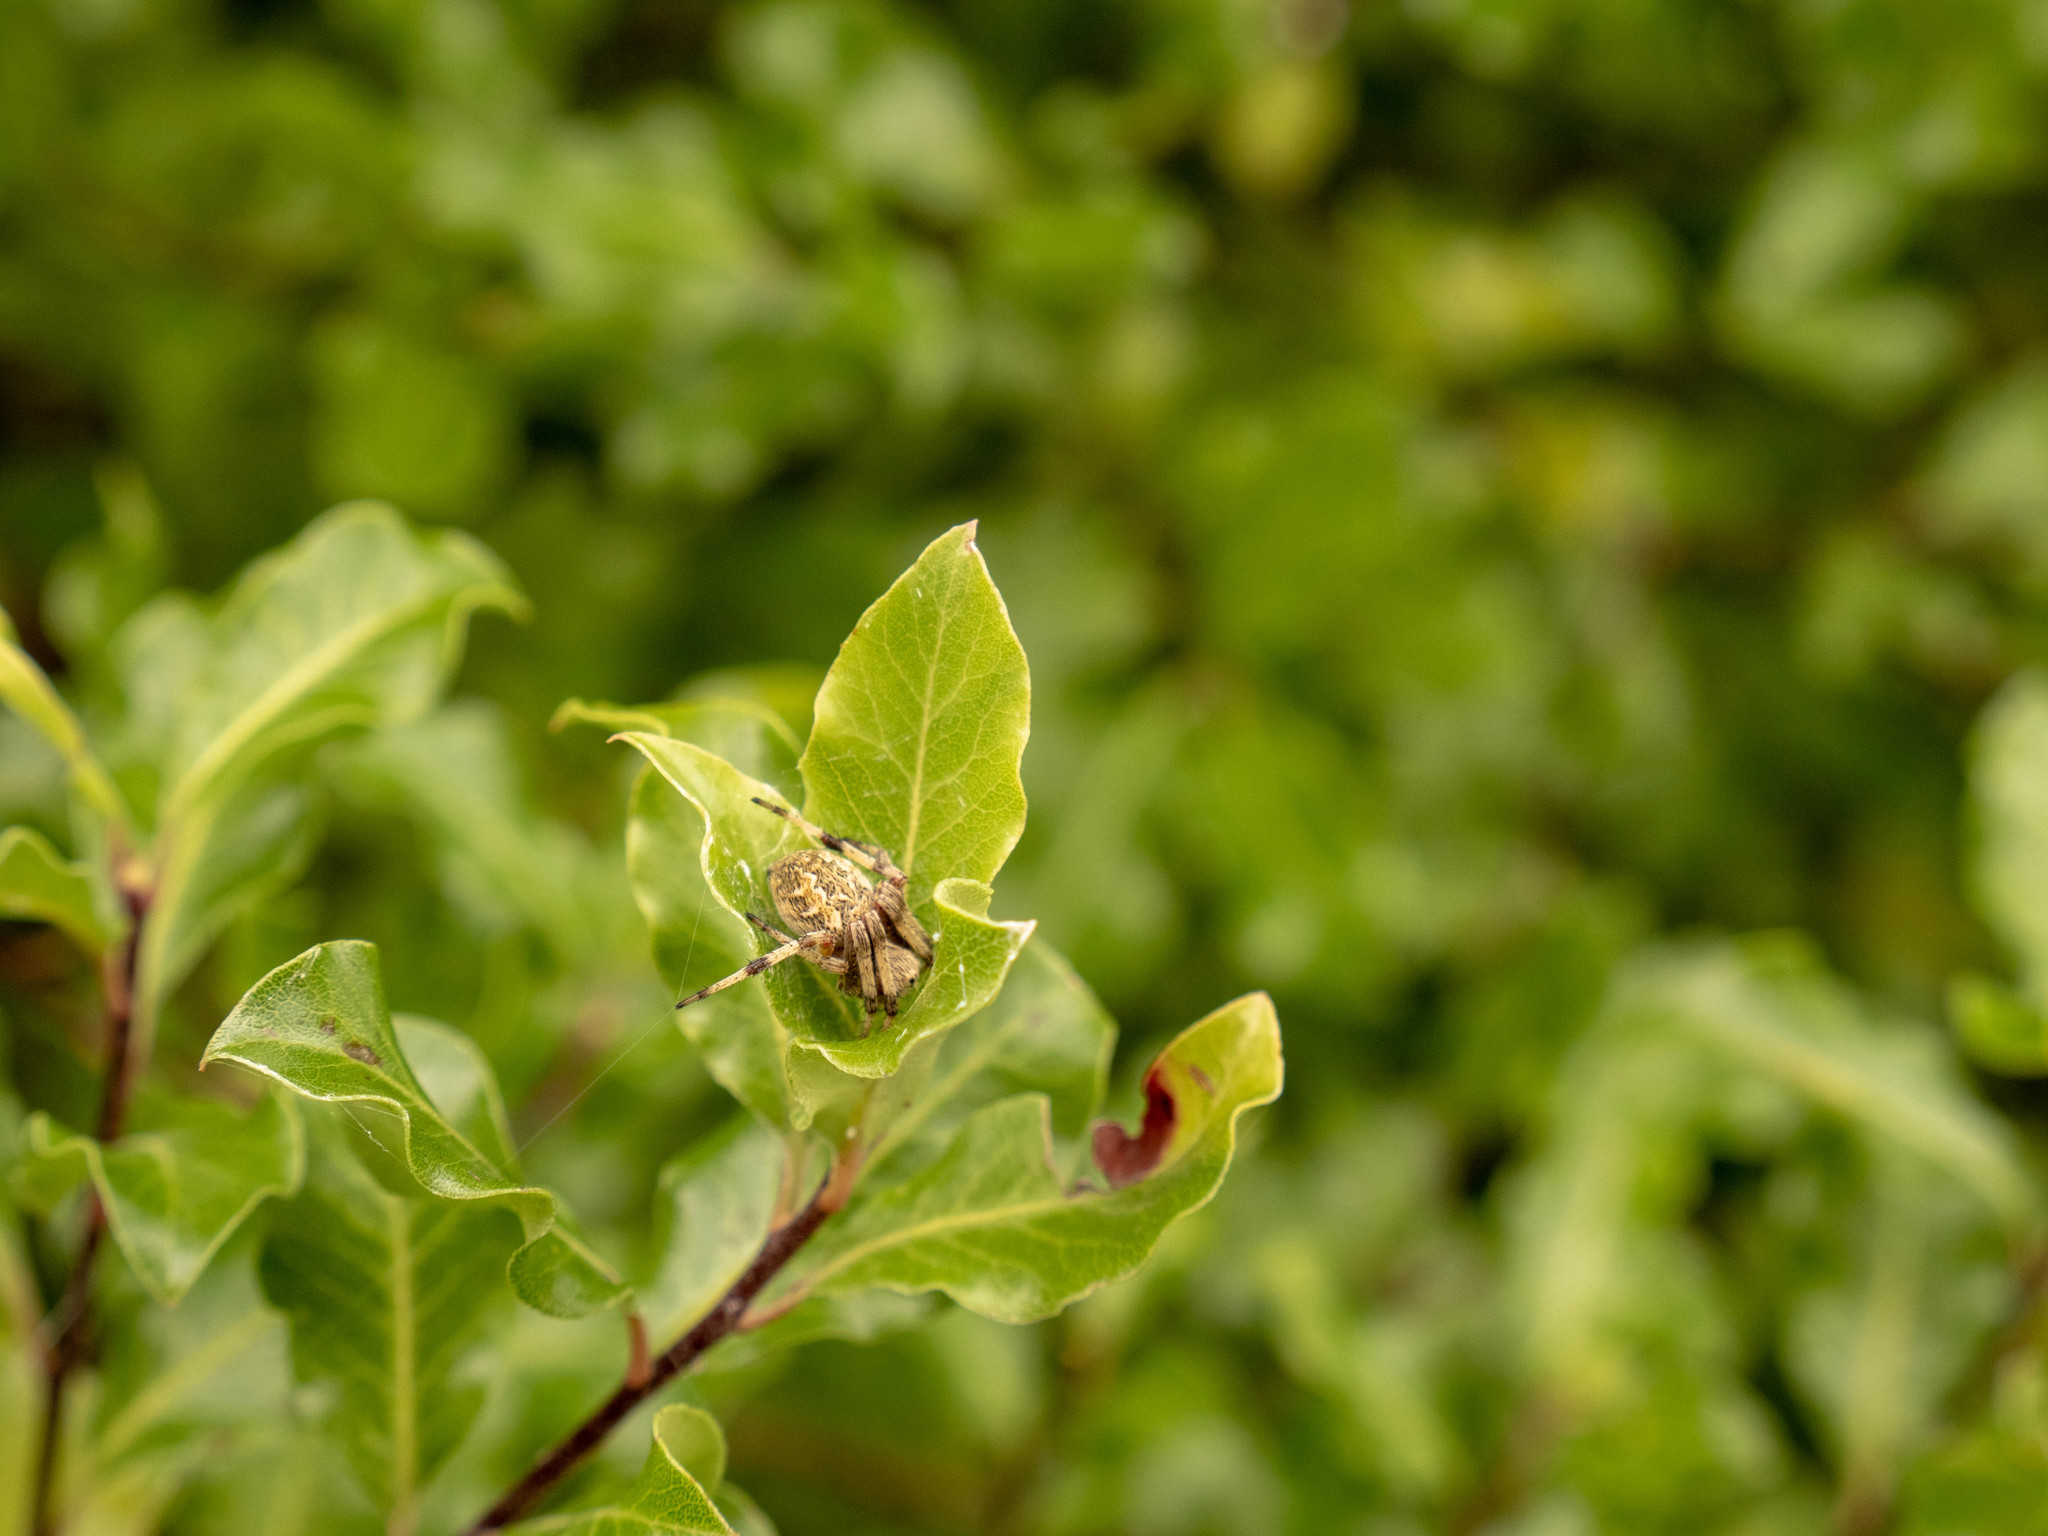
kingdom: Animalia
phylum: Arthropoda
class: Arachnida
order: Araneae
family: Araneidae
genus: Salsa
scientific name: Salsa fuliginata
